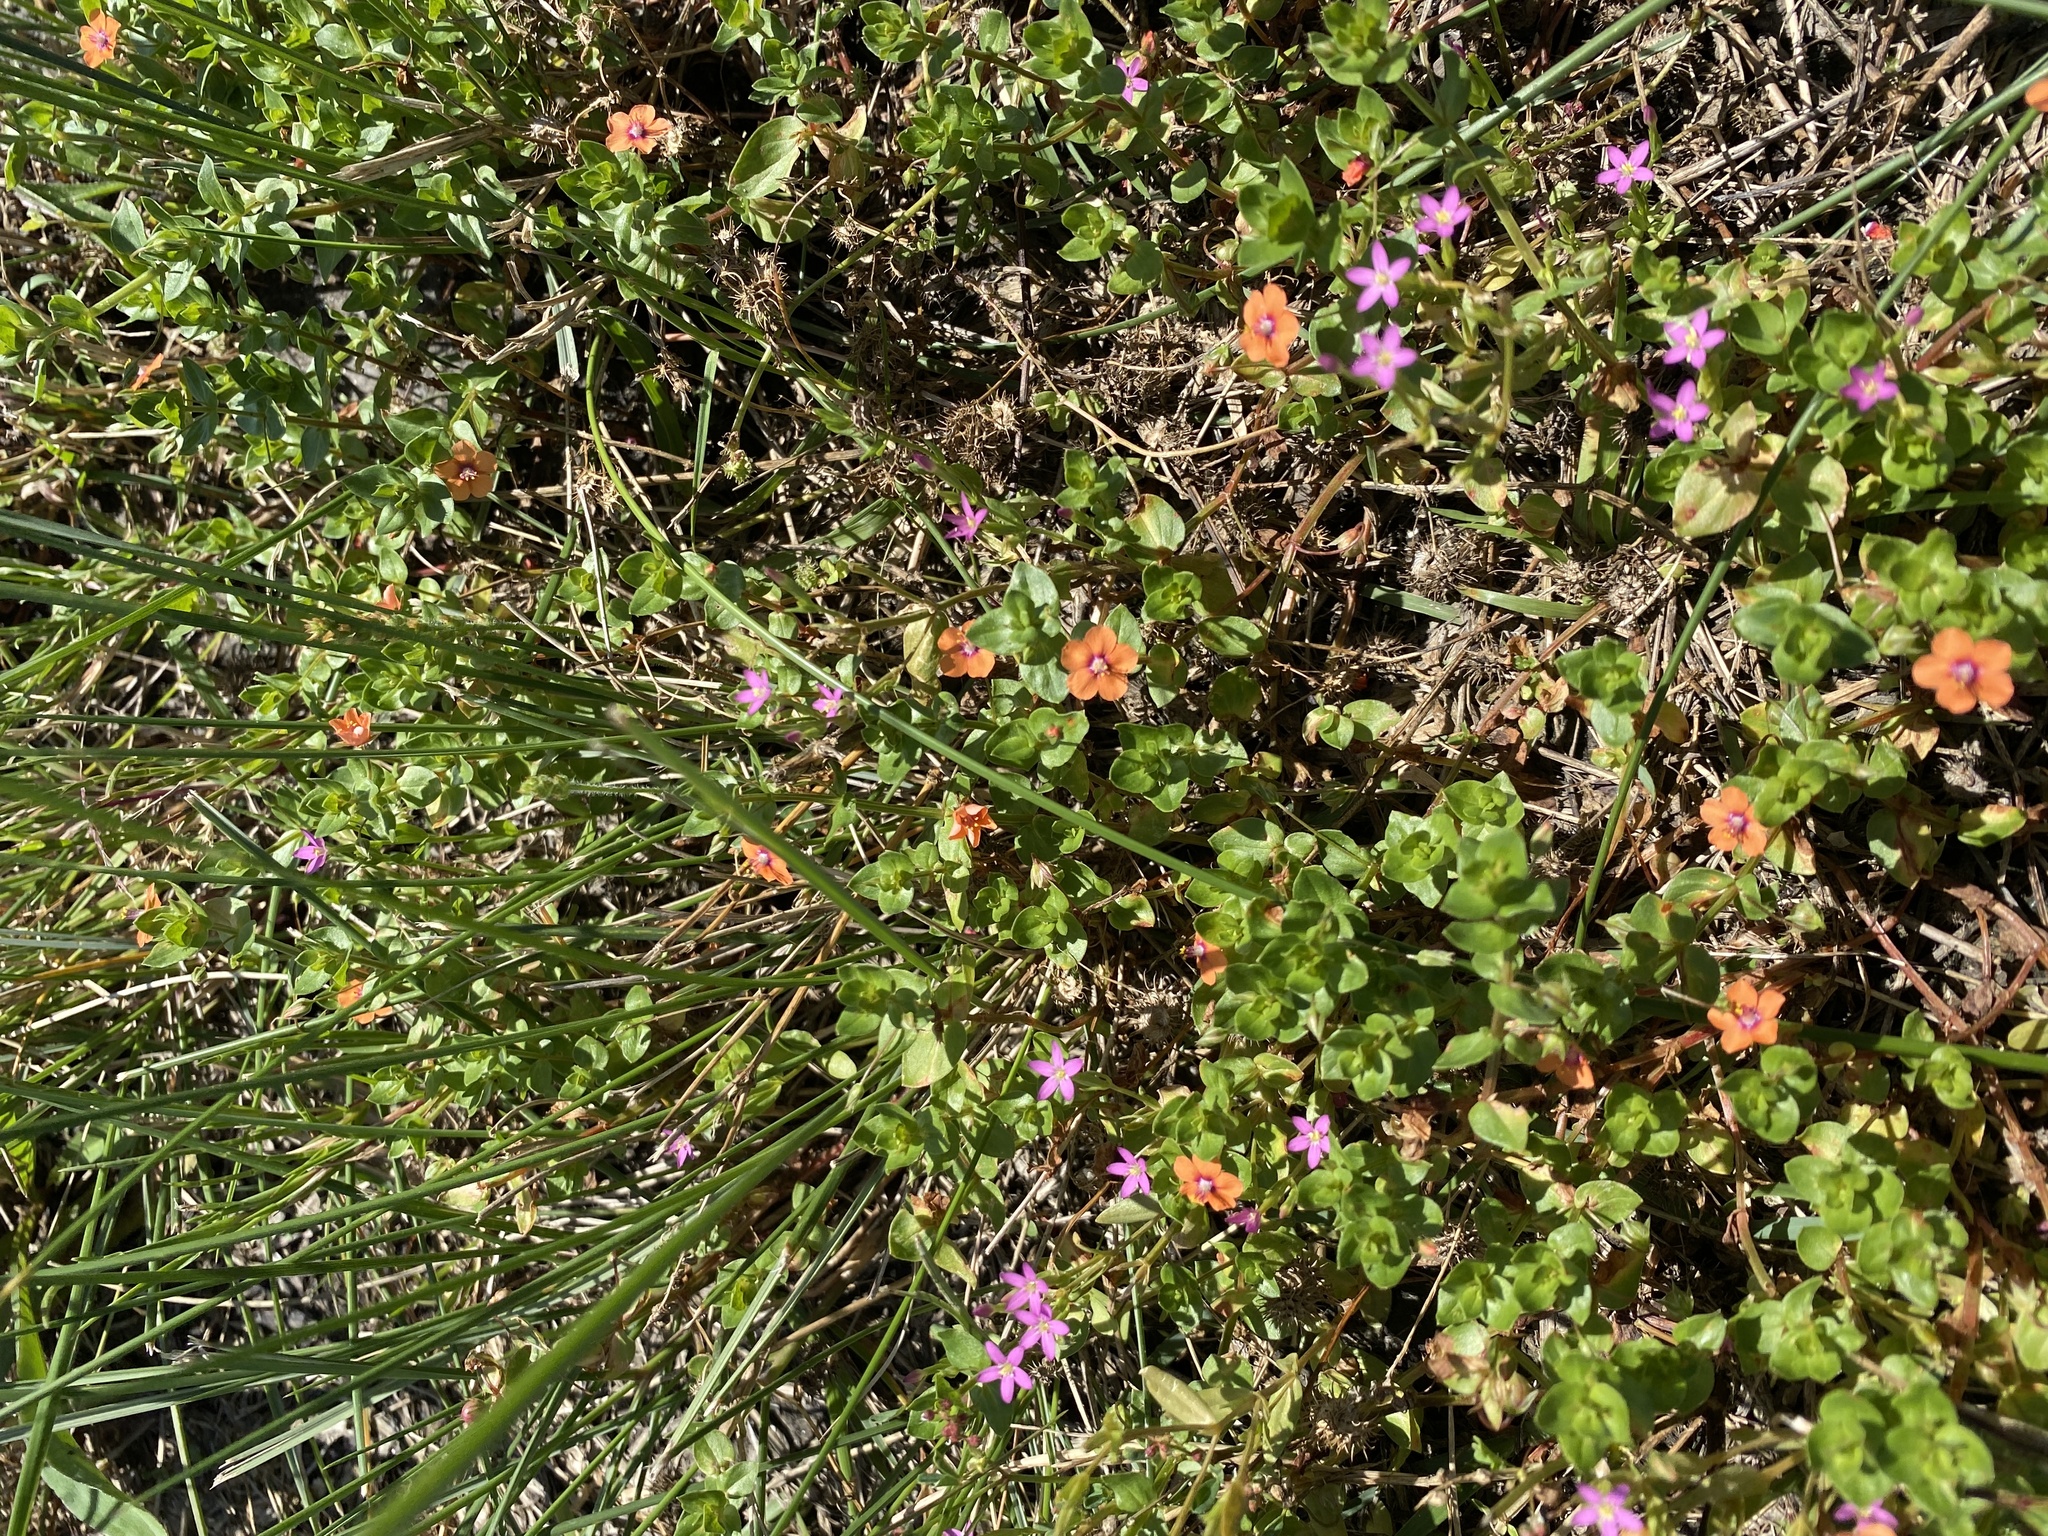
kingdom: Plantae
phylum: Tracheophyta
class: Magnoliopsida
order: Ericales
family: Primulaceae
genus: Lysimachia
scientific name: Lysimachia arvensis
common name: Scarlet pimpernel
